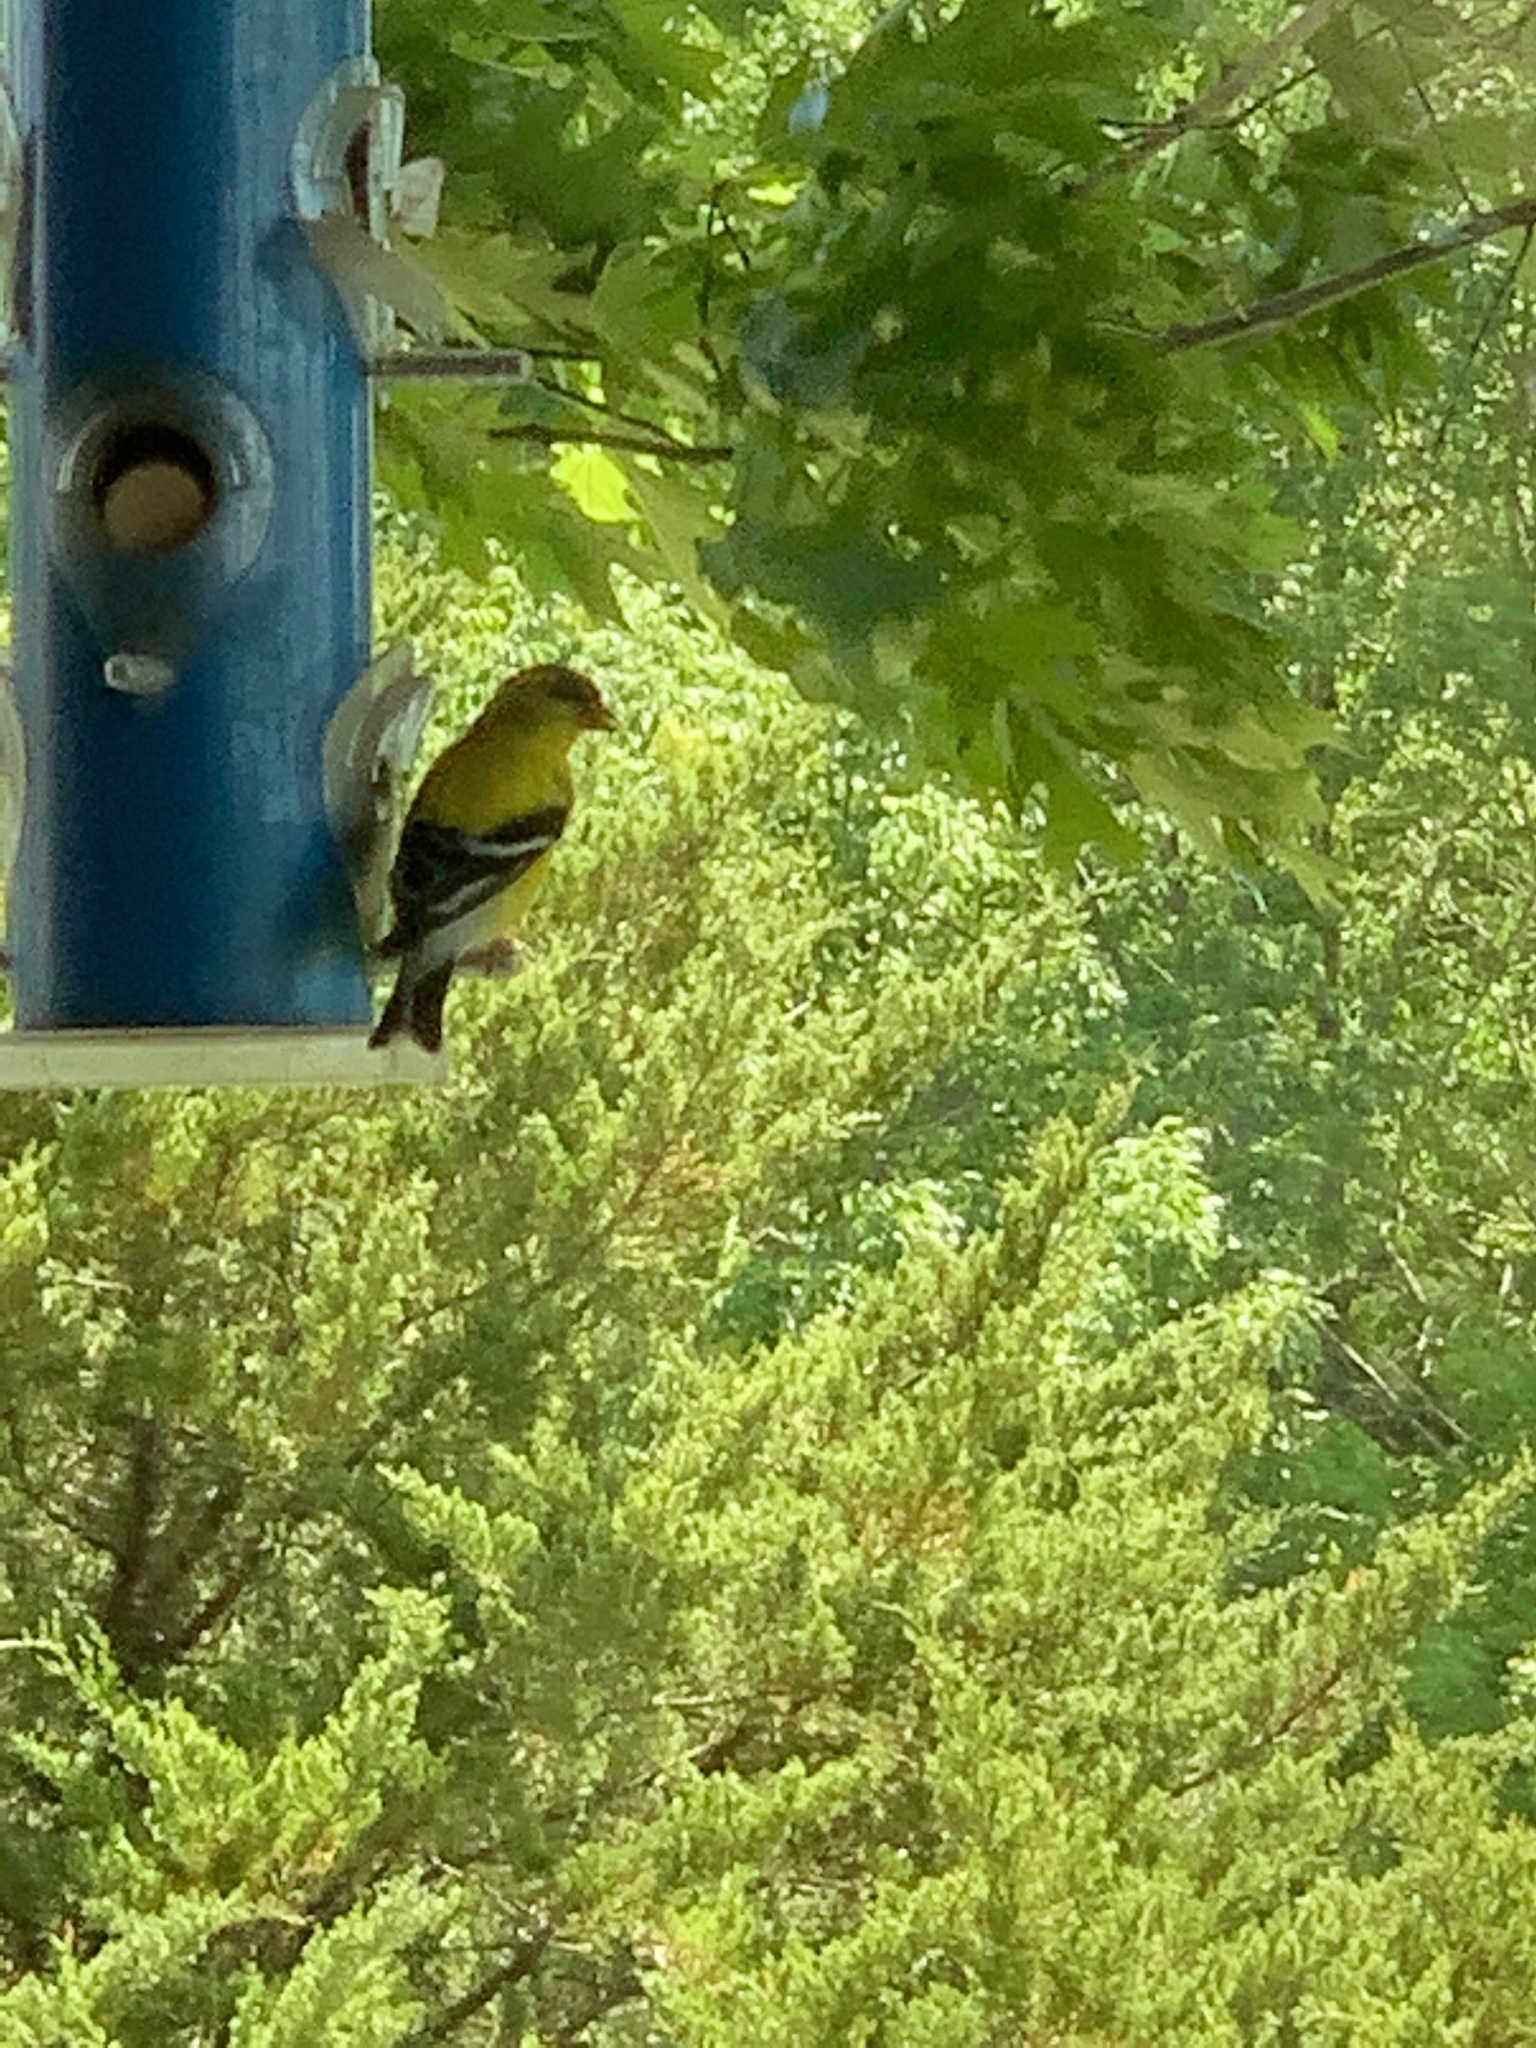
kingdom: Animalia
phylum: Chordata
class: Aves
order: Passeriformes
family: Fringillidae
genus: Spinus
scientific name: Spinus tristis
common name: American goldfinch
